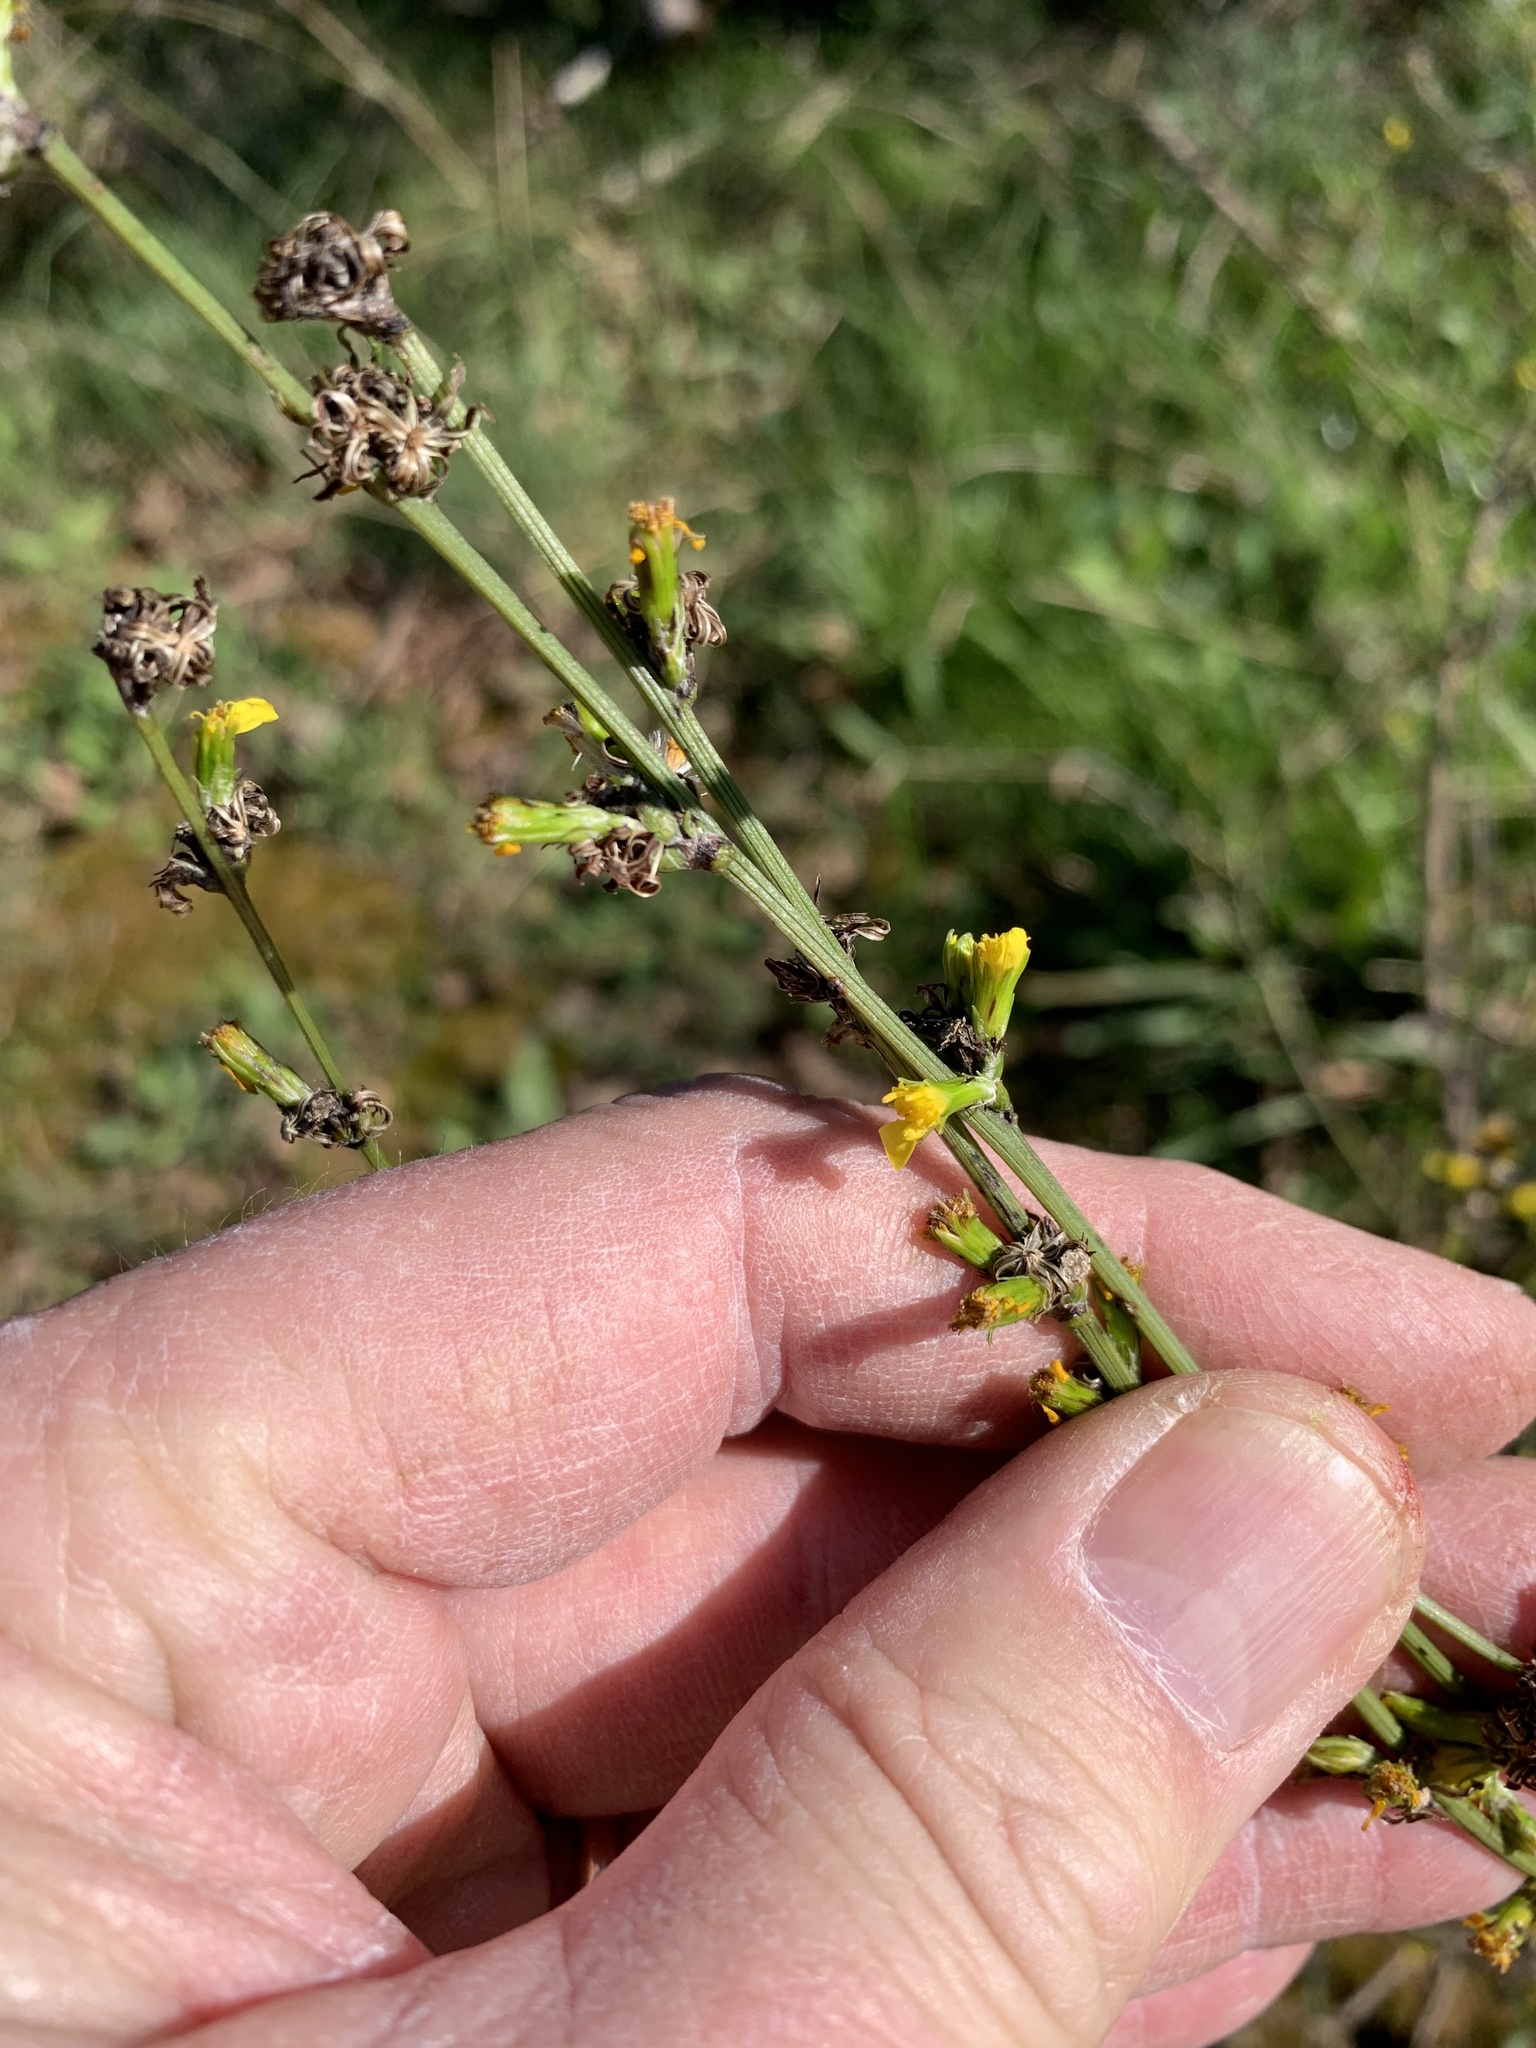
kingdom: Plantae
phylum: Tracheophyta
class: Magnoliopsida
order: Asterales
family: Asteraceae
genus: Senecio
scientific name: Senecio pubigerus
